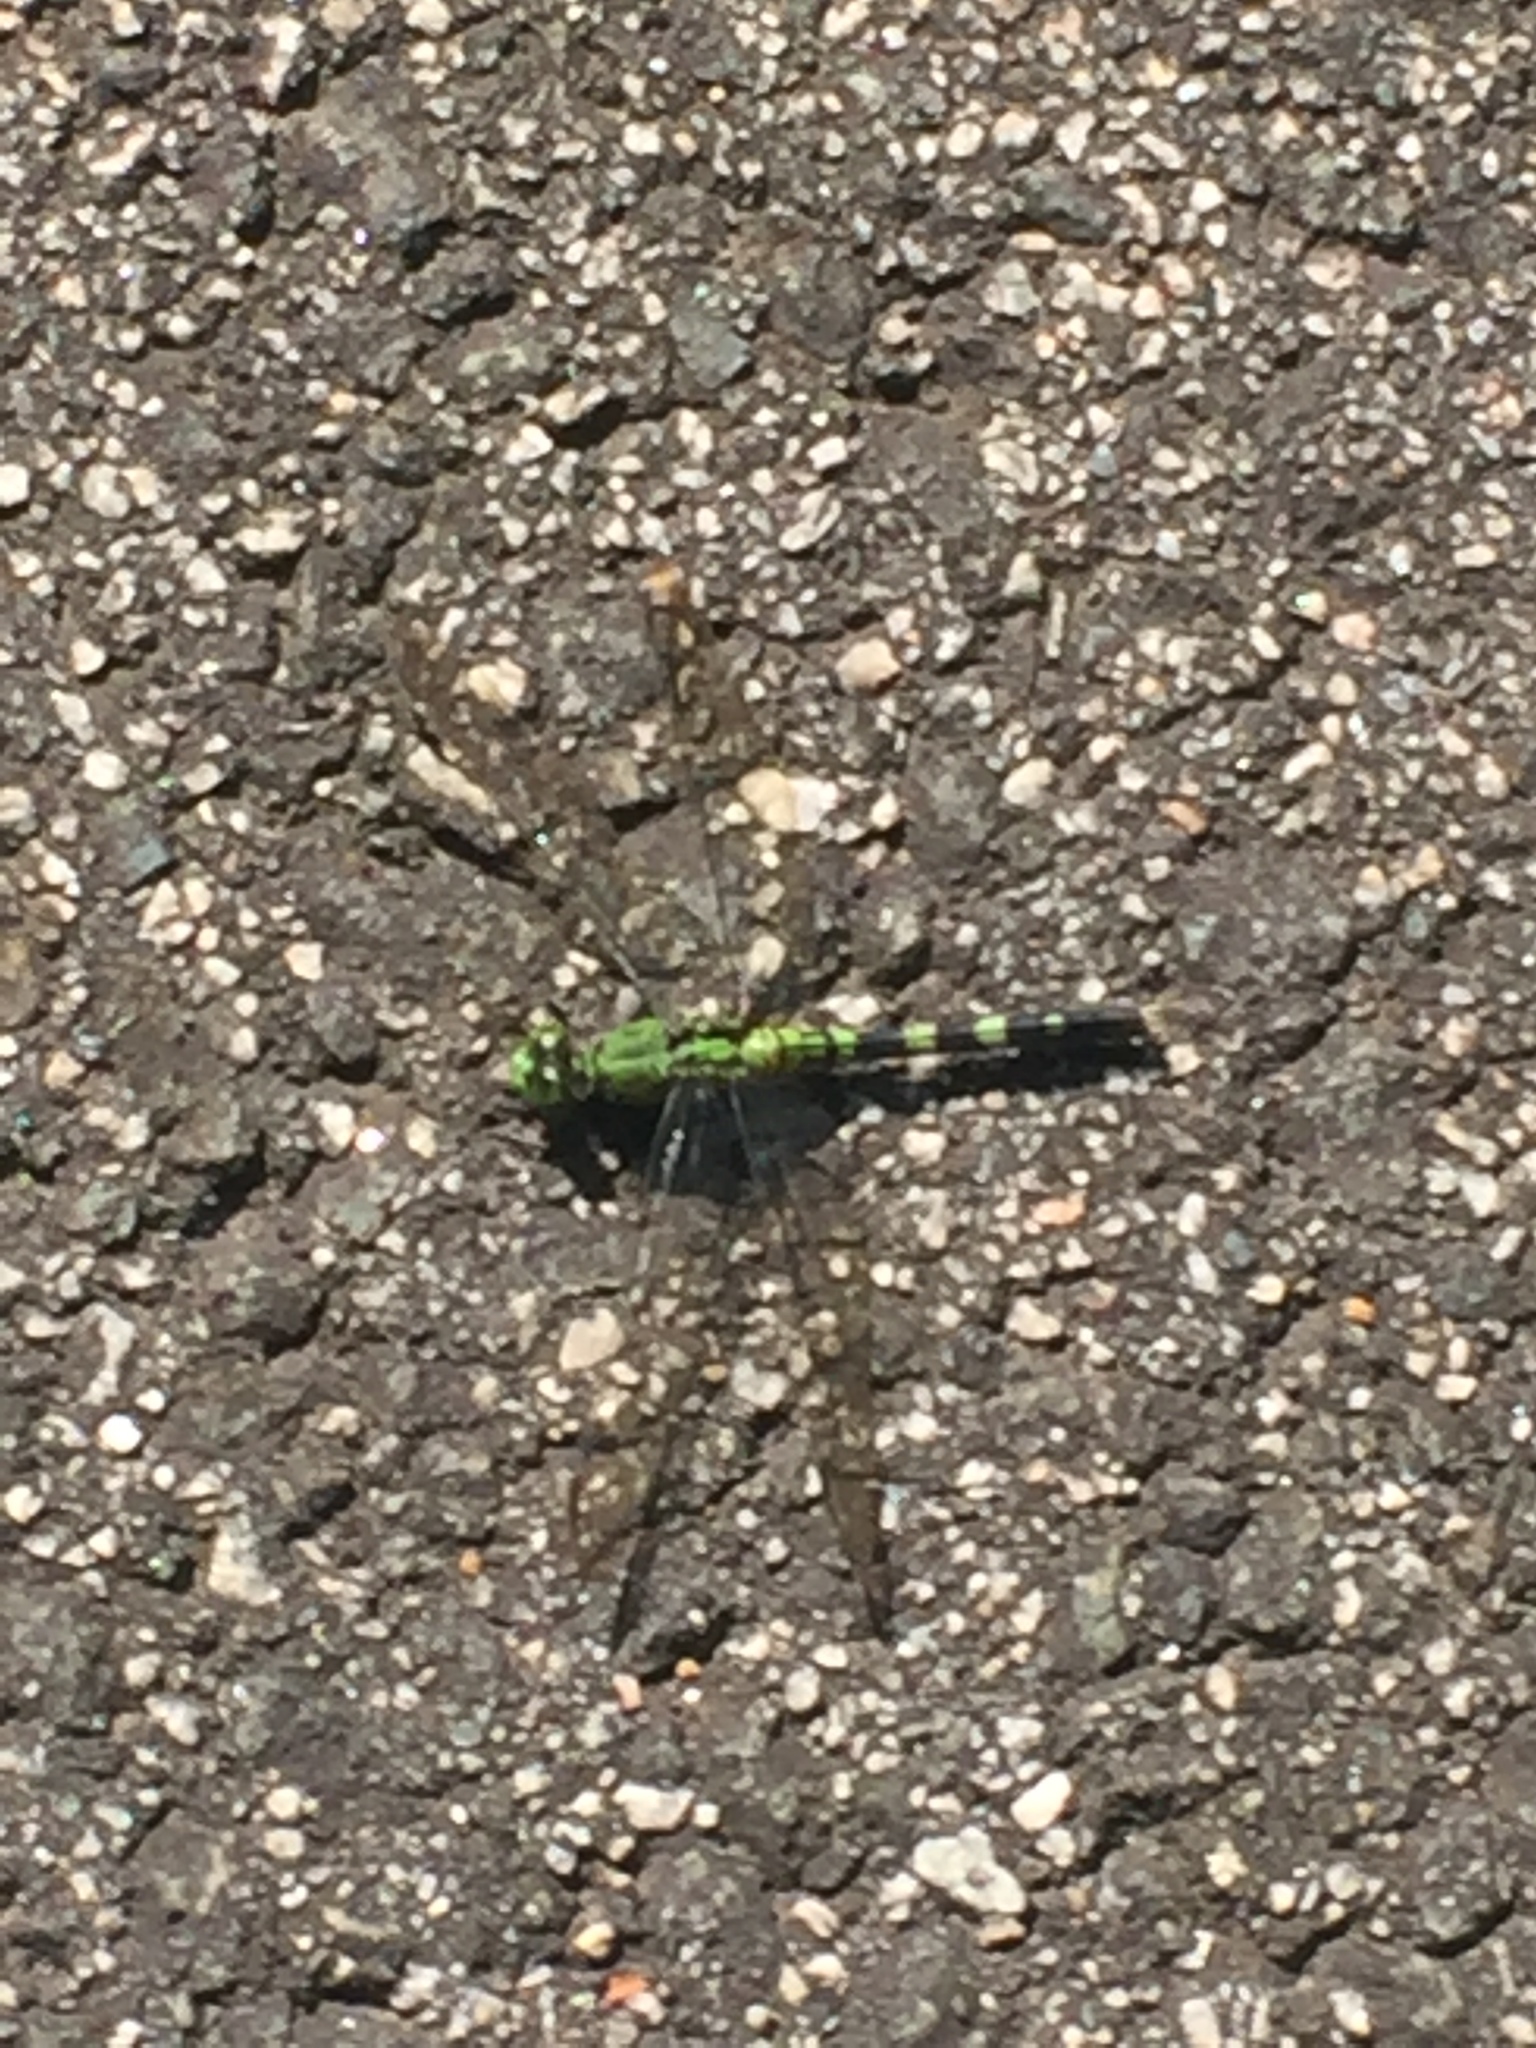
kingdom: Animalia
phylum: Arthropoda
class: Insecta
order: Odonata
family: Libellulidae
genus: Erythemis
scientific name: Erythemis simplicicollis
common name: Eastern pondhawk
